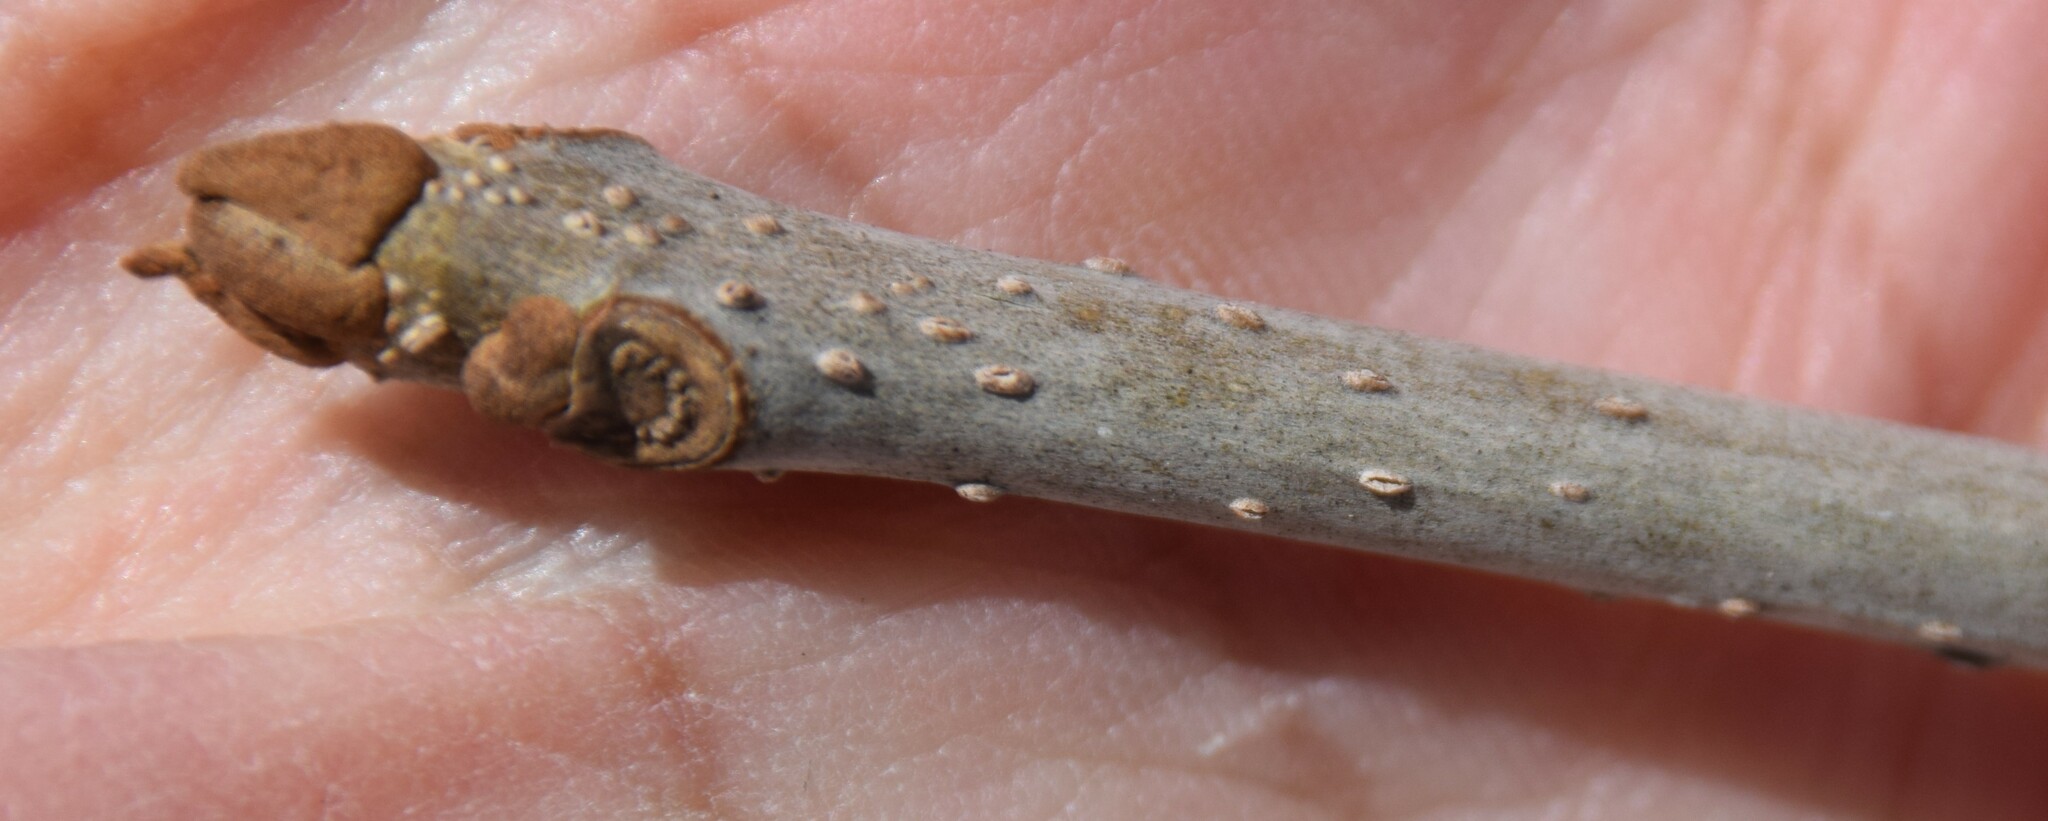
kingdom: Plantae
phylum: Tracheophyta
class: Magnoliopsida
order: Lamiales
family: Oleaceae
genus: Fraxinus
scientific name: Fraxinus nigra
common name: Black ash
